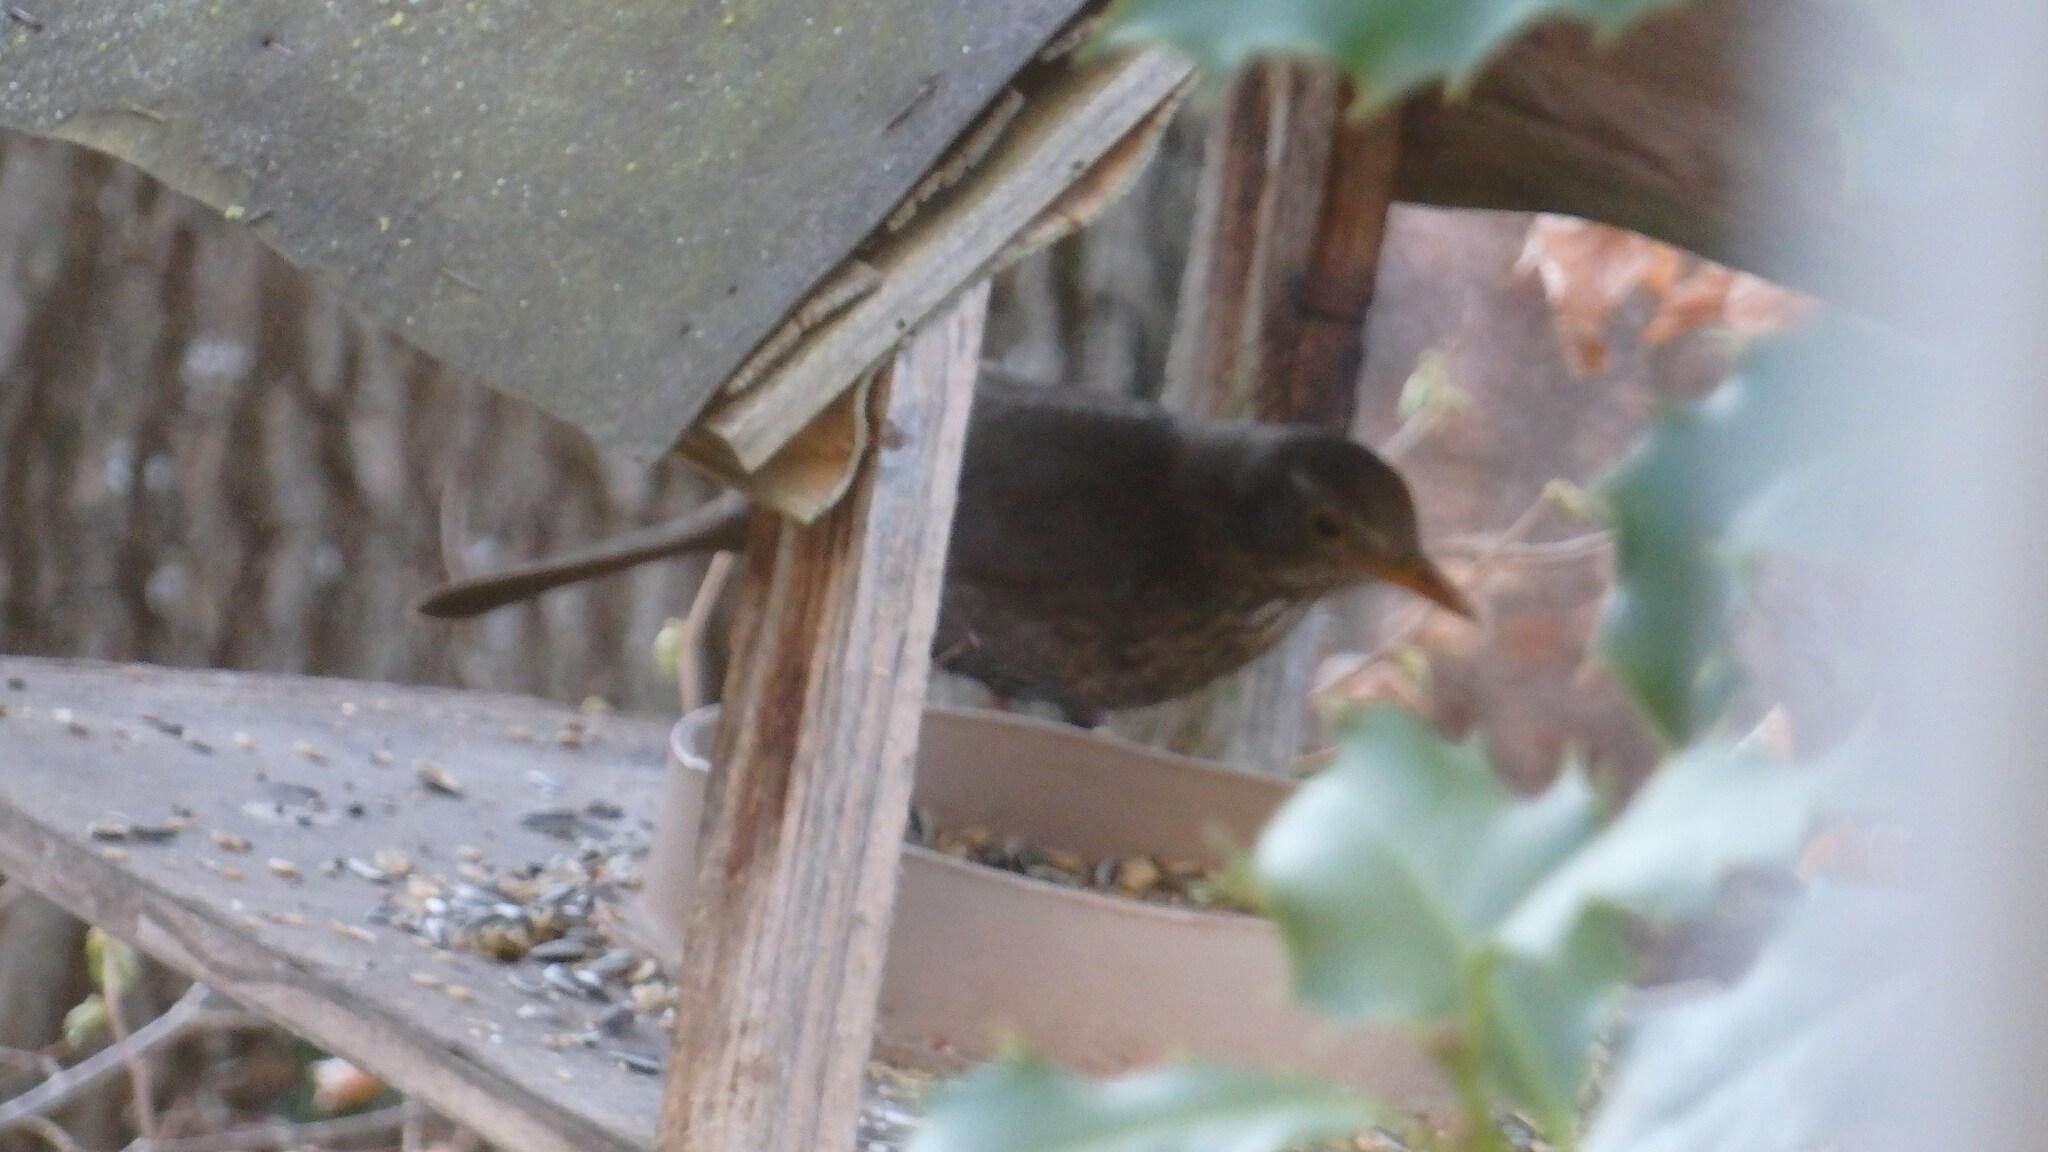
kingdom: Animalia
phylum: Chordata
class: Aves
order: Passeriformes
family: Turdidae
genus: Turdus
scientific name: Turdus merula
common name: Common blackbird
